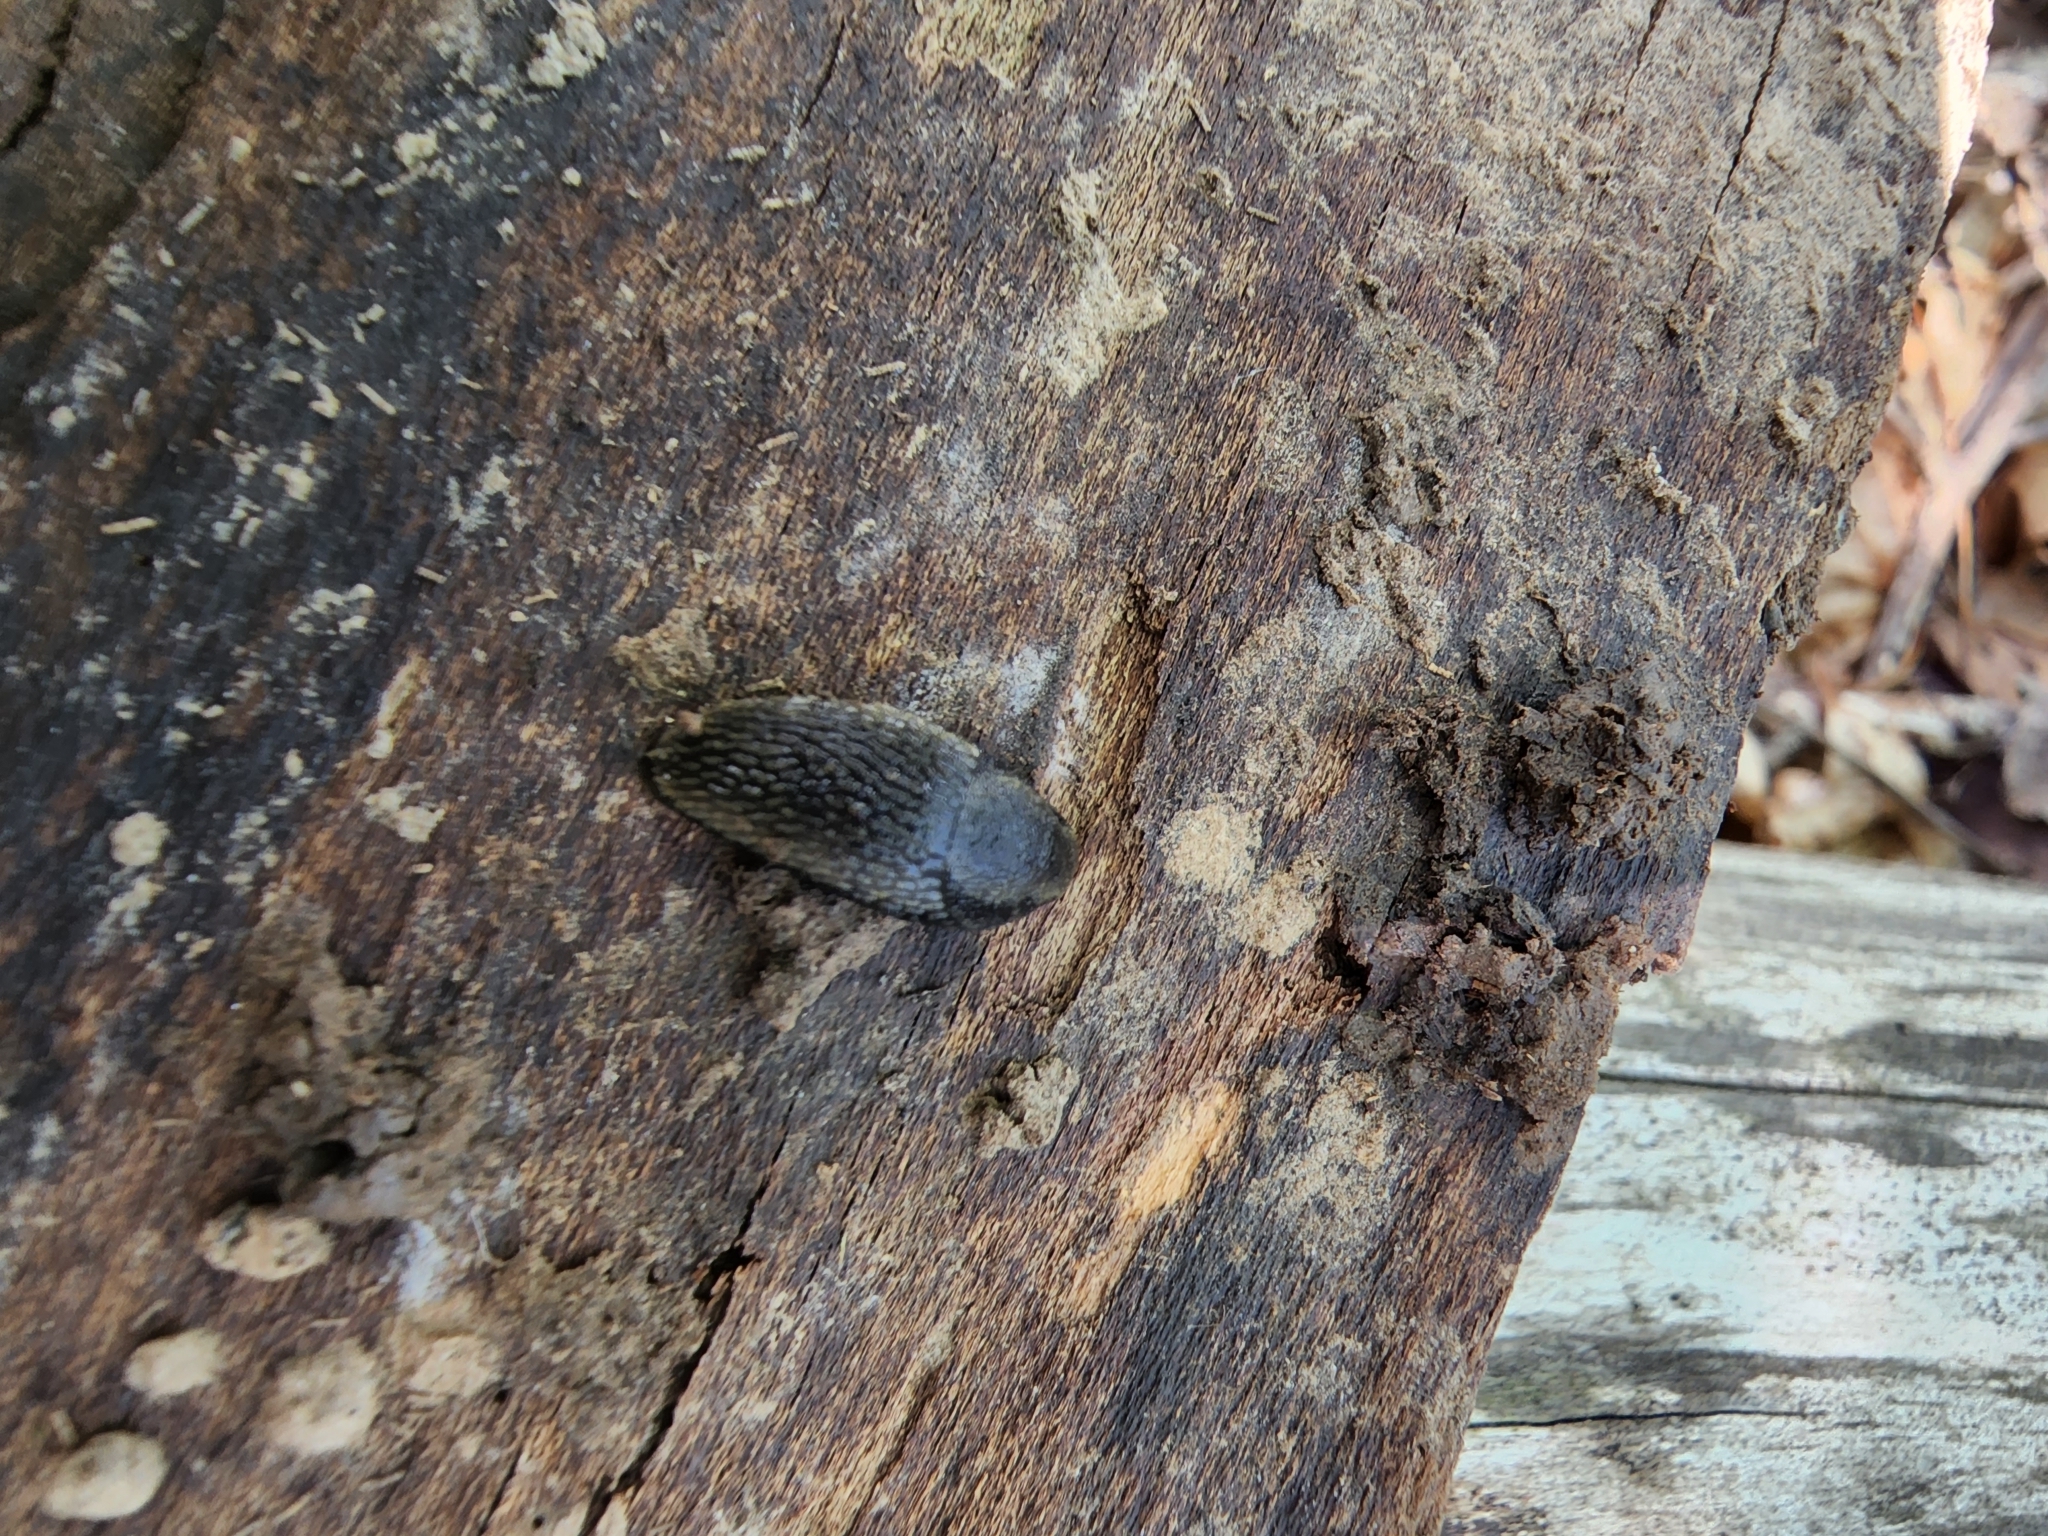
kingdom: Animalia
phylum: Mollusca
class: Gastropoda
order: Stylommatophora
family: Arionidae
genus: Arion
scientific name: Arion hortensis
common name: Garden arion
